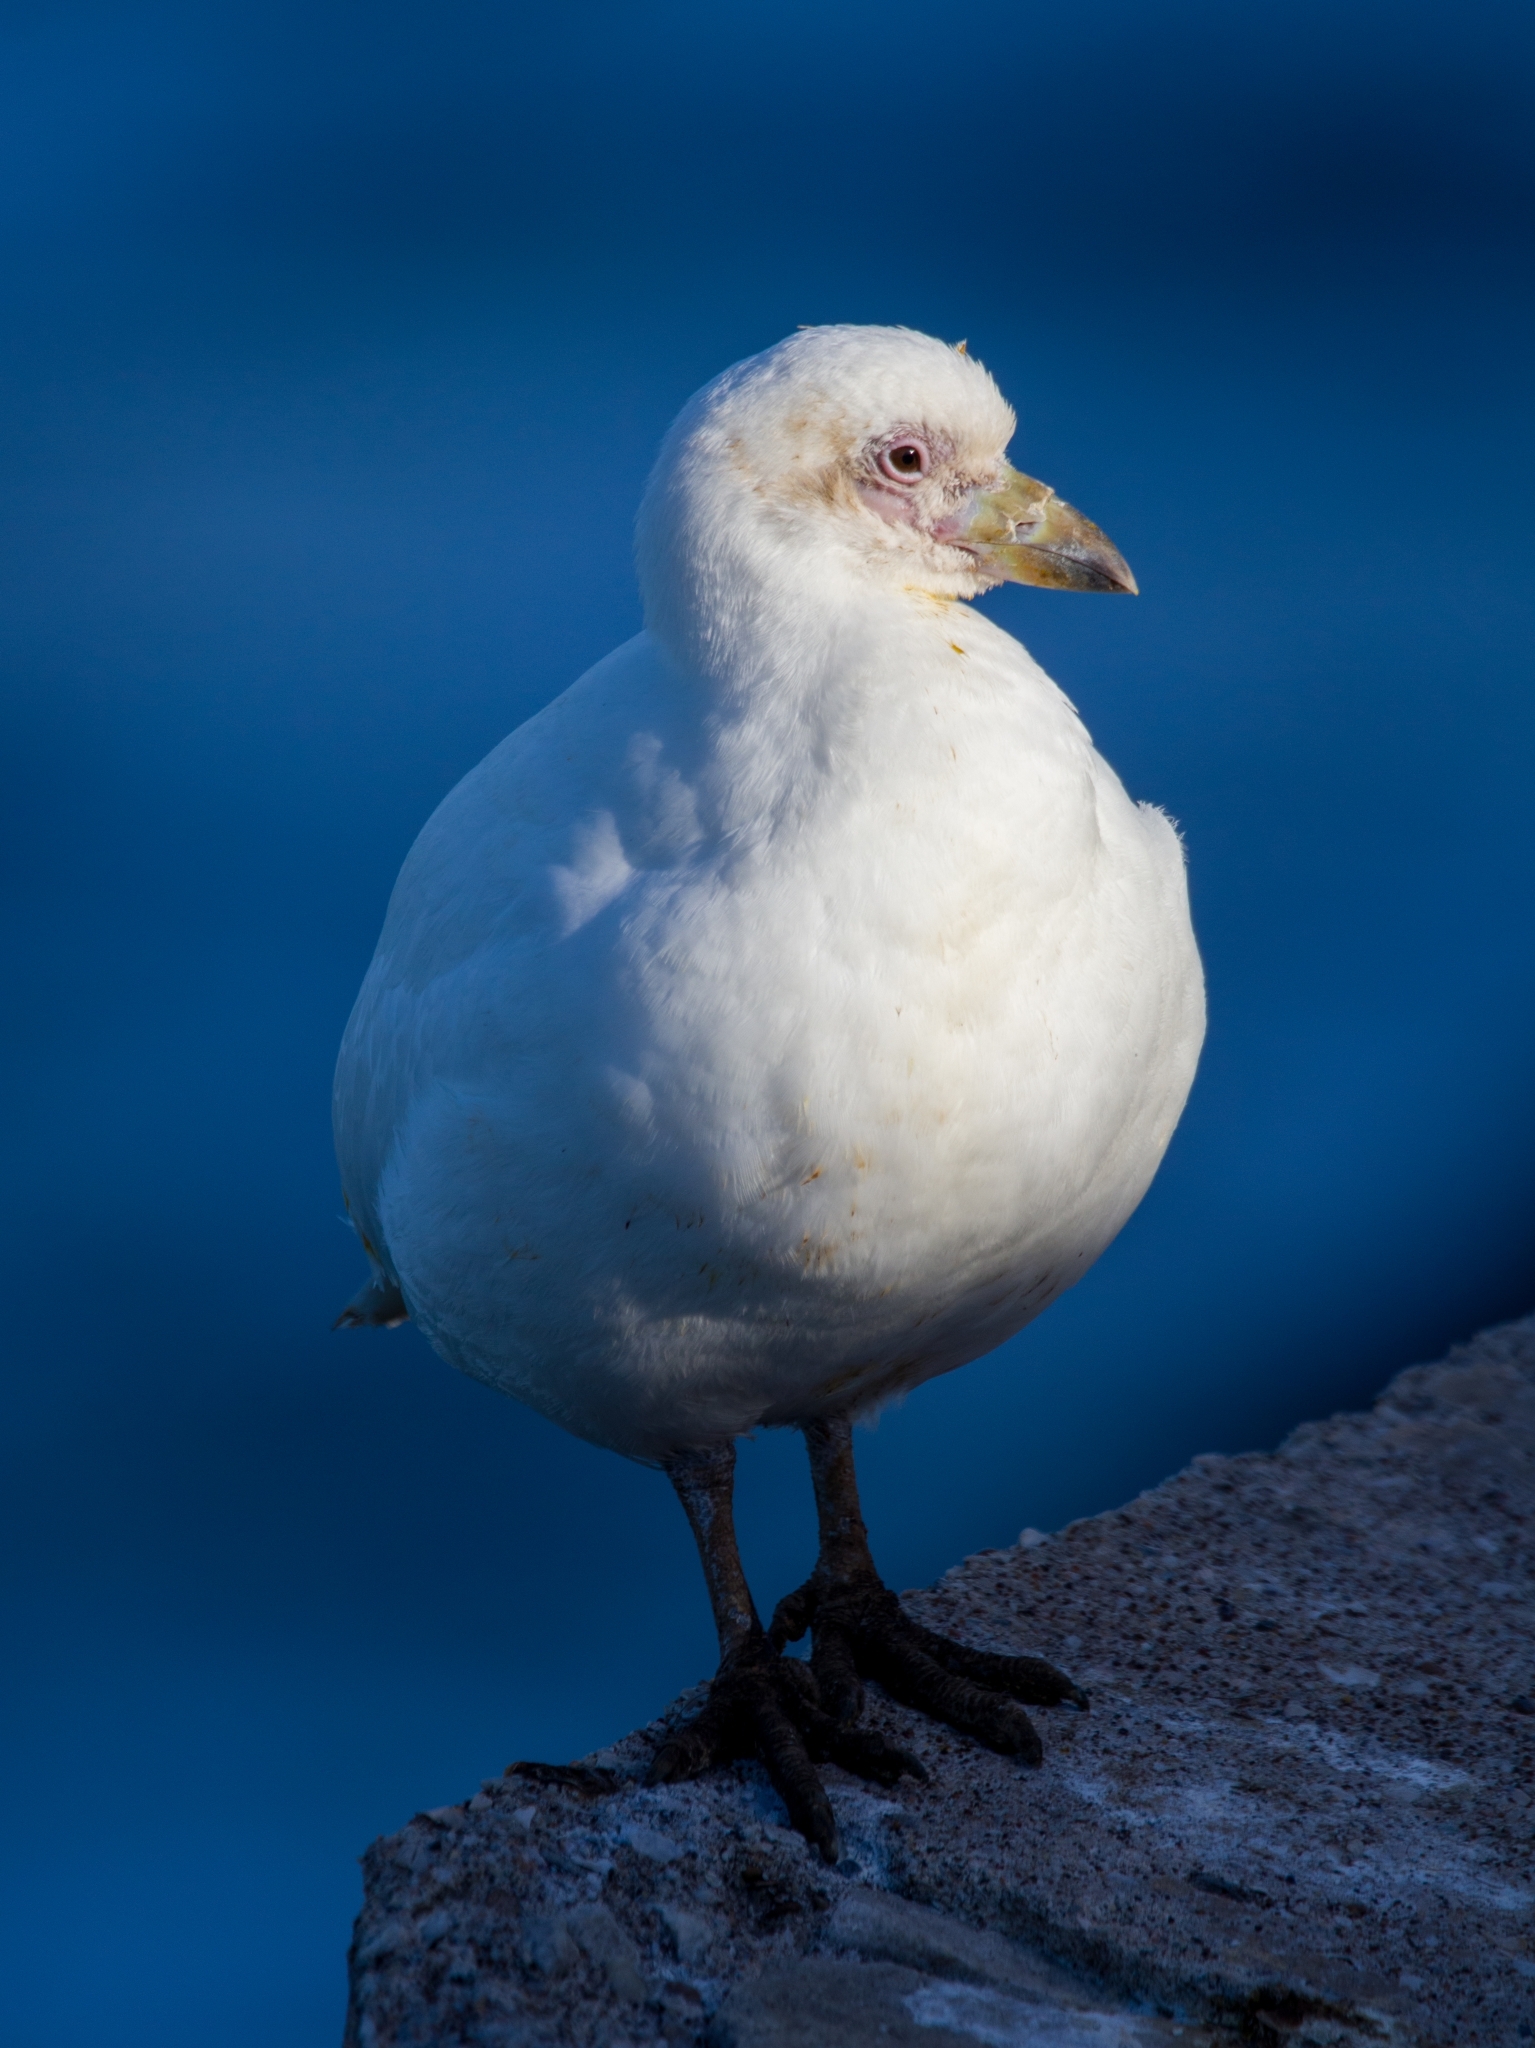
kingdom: Animalia
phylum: Chordata
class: Aves
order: Charadriiformes
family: Chionidae
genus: Chionis
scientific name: Chionis albus
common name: Snowy sheathbill
